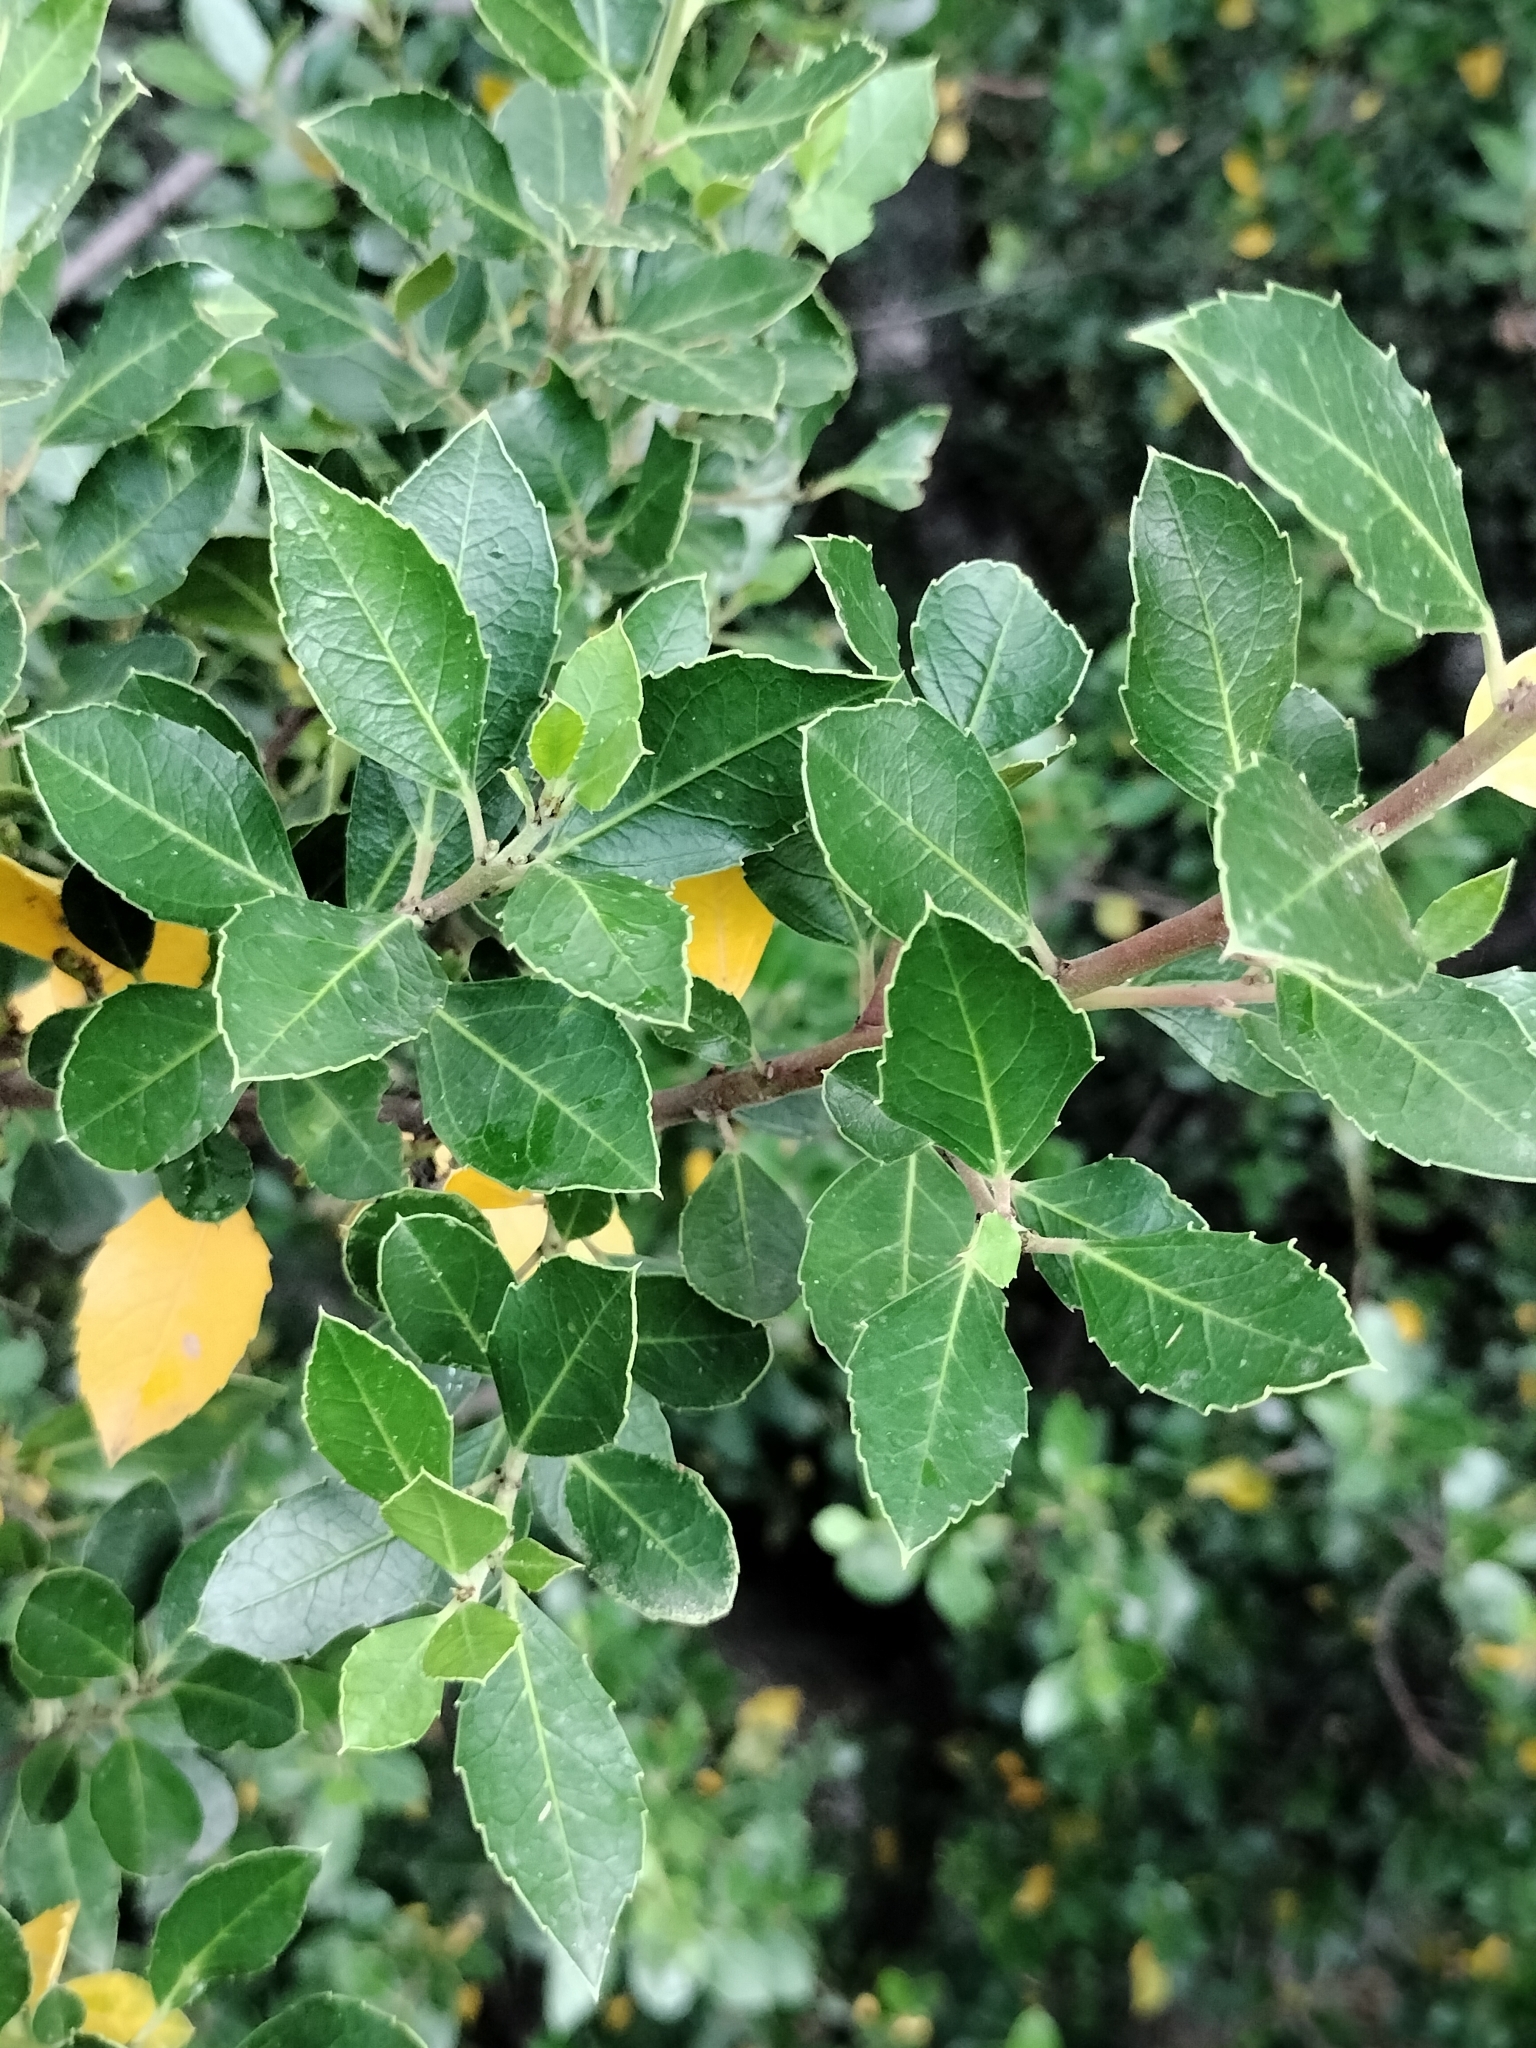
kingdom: Plantae
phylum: Tracheophyta
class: Magnoliopsida
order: Rosales
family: Rhamnaceae
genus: Rhamnus
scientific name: Rhamnus alaternus
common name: Mediterranean buckthorn
